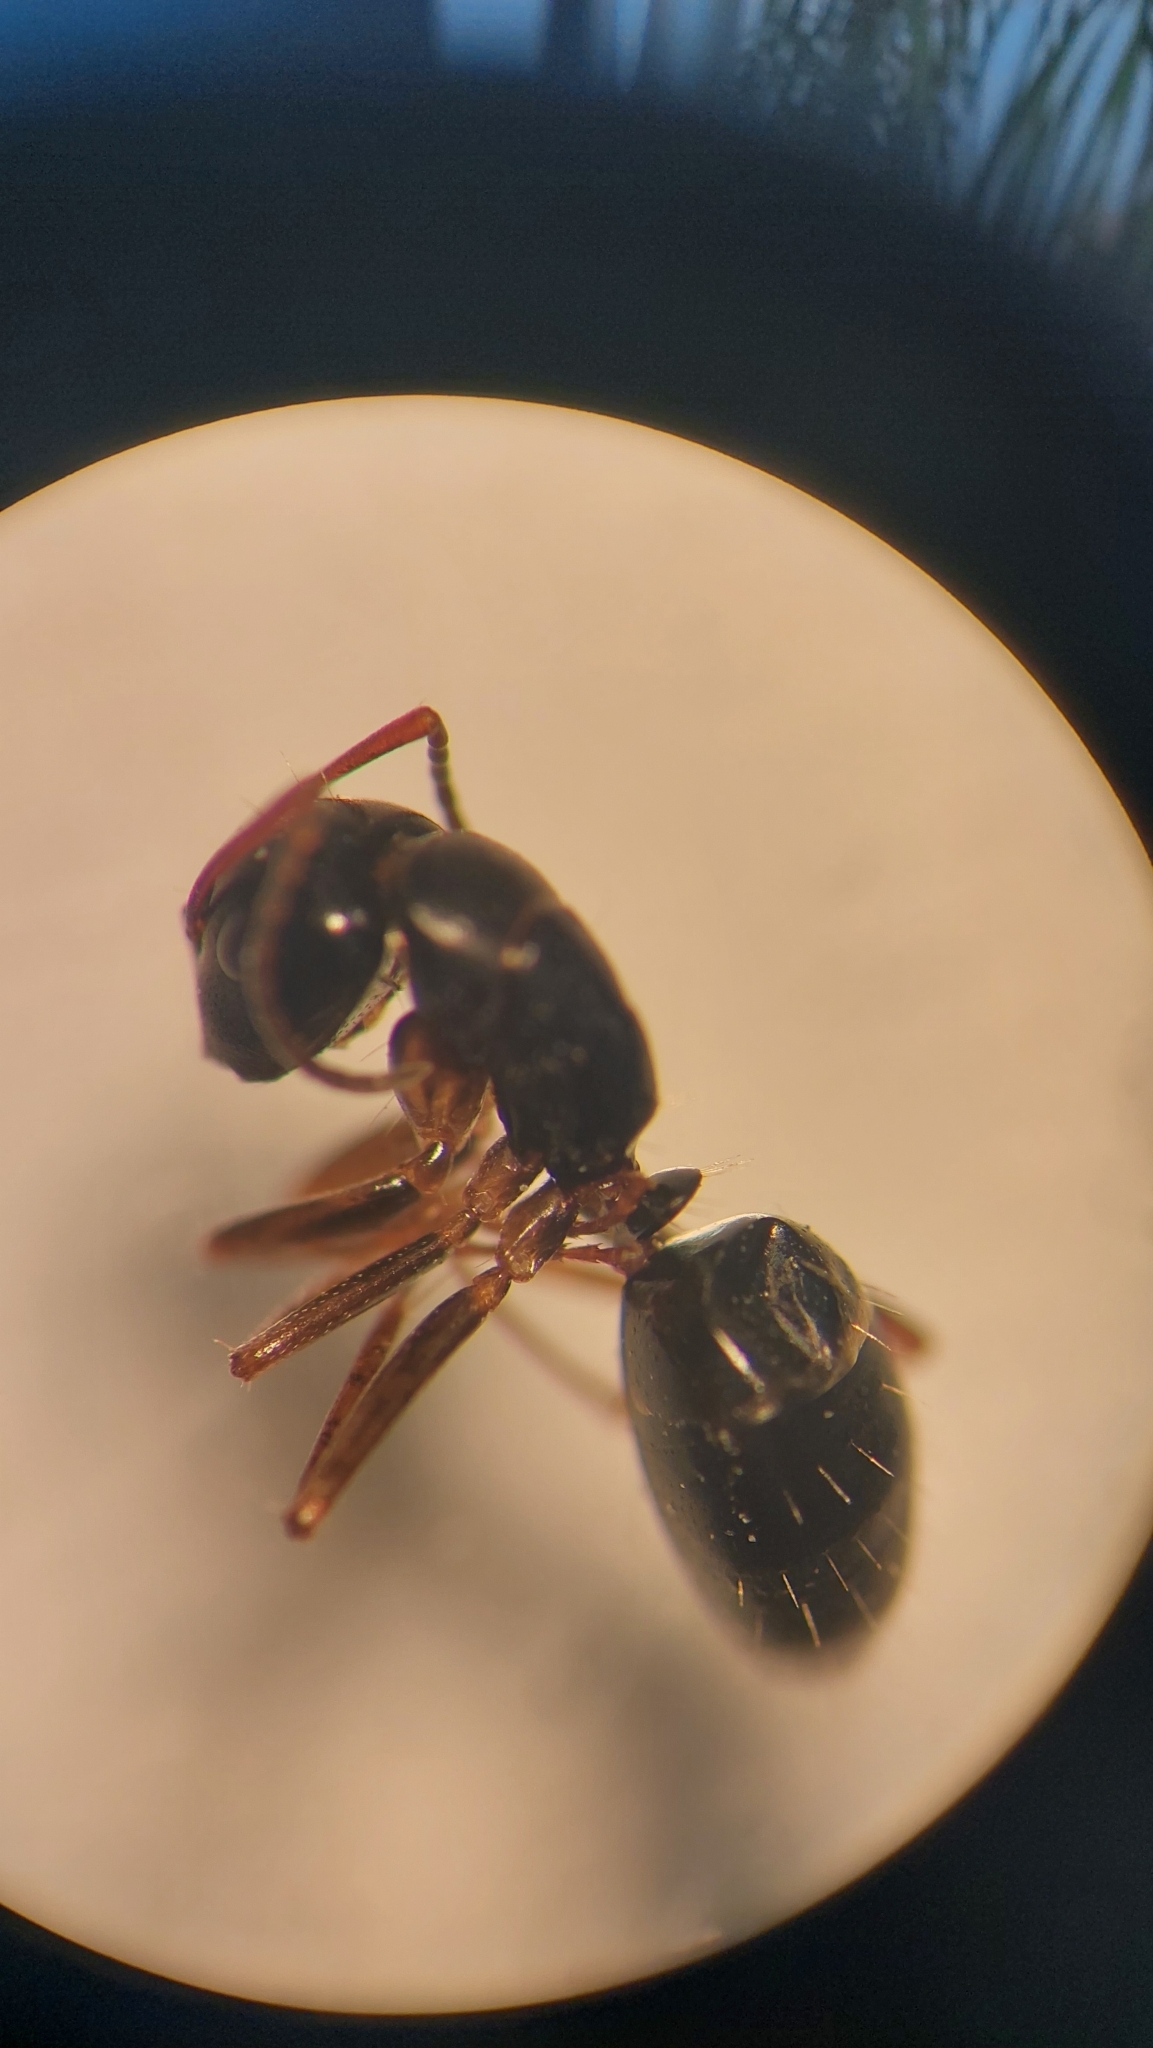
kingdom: Animalia
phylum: Arthropoda
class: Insecta
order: Hymenoptera
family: Formicidae
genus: Camponotus
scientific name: Camponotus fallax
